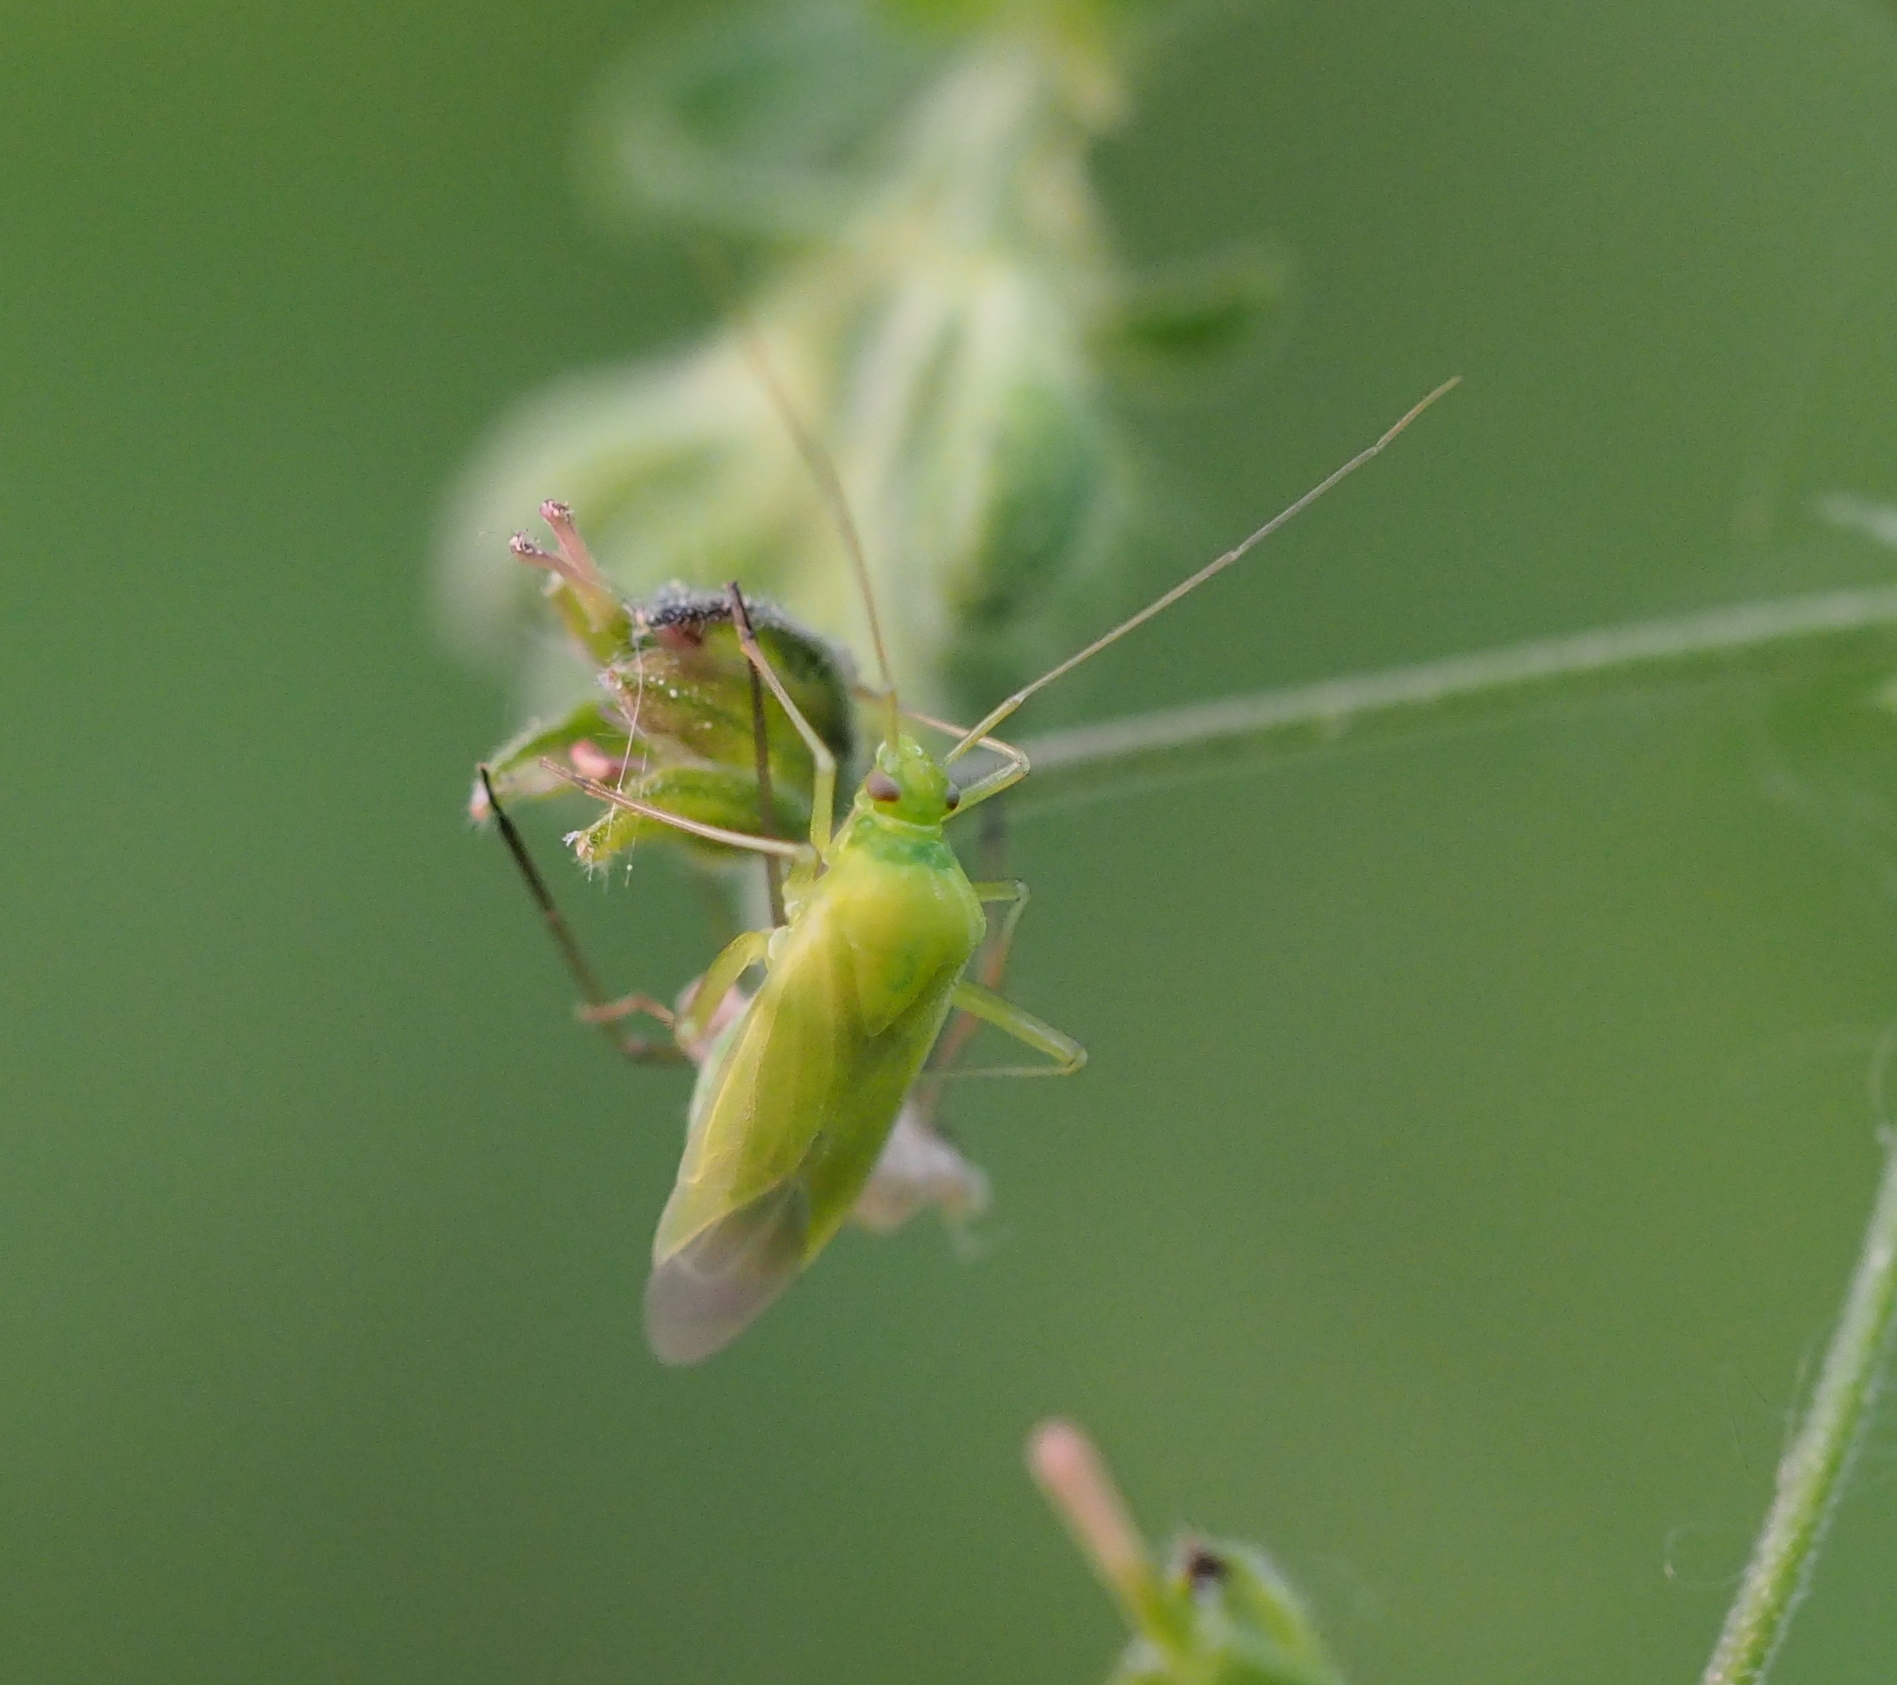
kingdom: Animalia
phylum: Arthropoda
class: Insecta
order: Hemiptera
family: Miridae
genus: Calocoris
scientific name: Calocoris affinis
